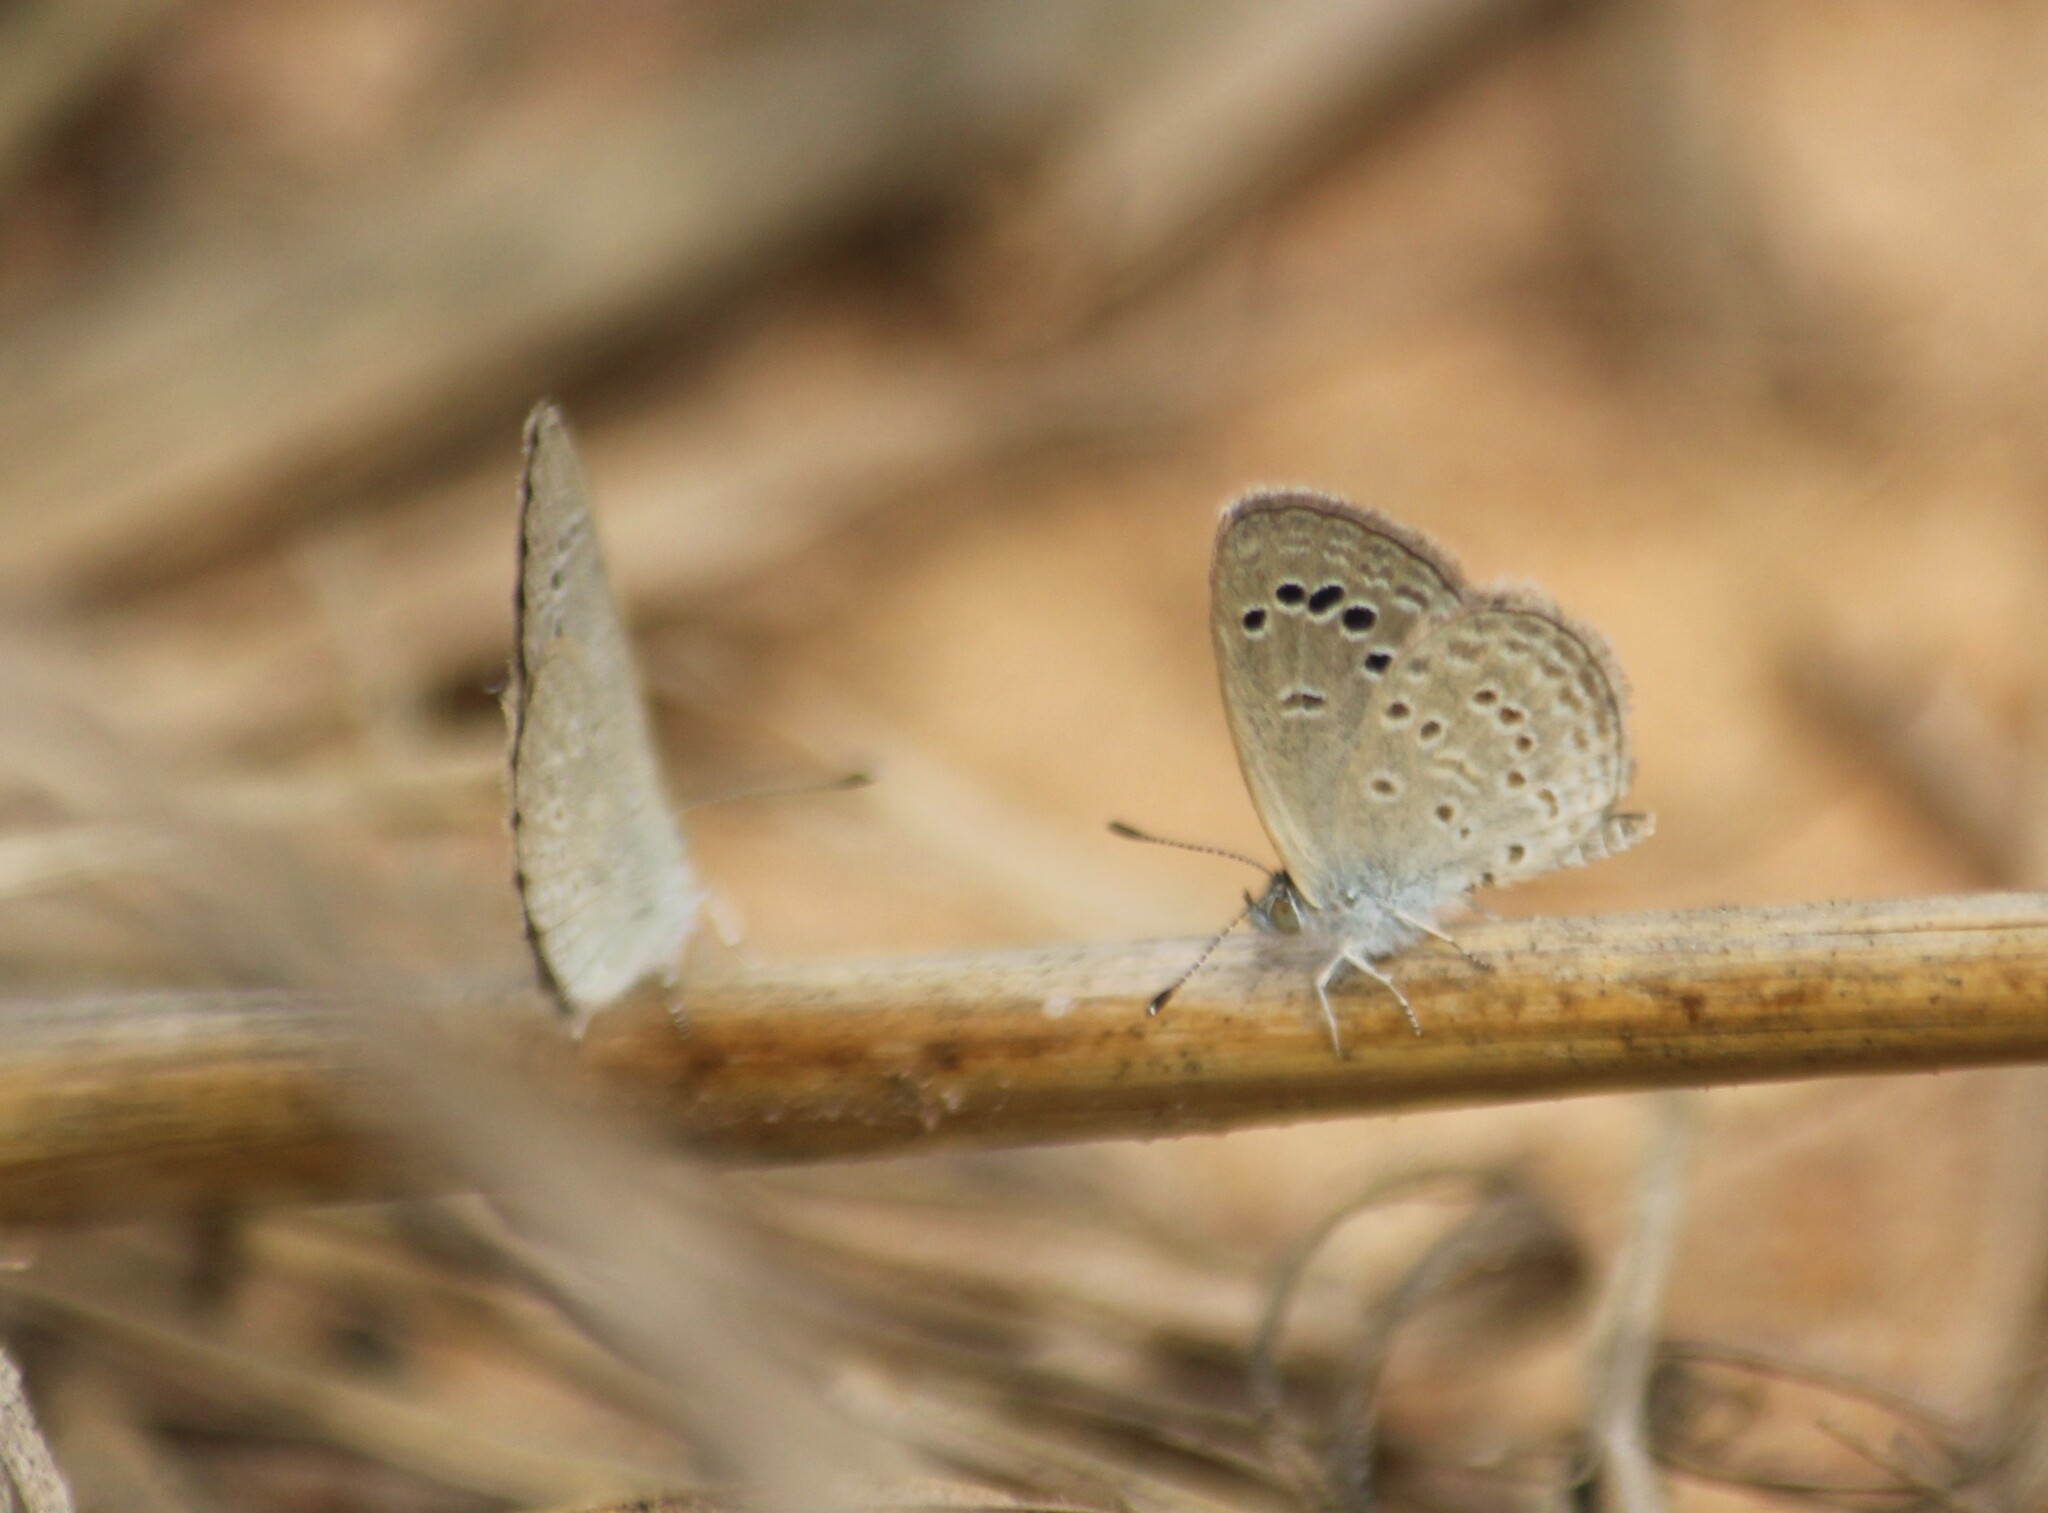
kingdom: Animalia
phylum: Arthropoda
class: Insecta
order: Lepidoptera
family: Lycaenidae
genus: Zizina
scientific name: Zizina otis
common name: Lesser grass blue
